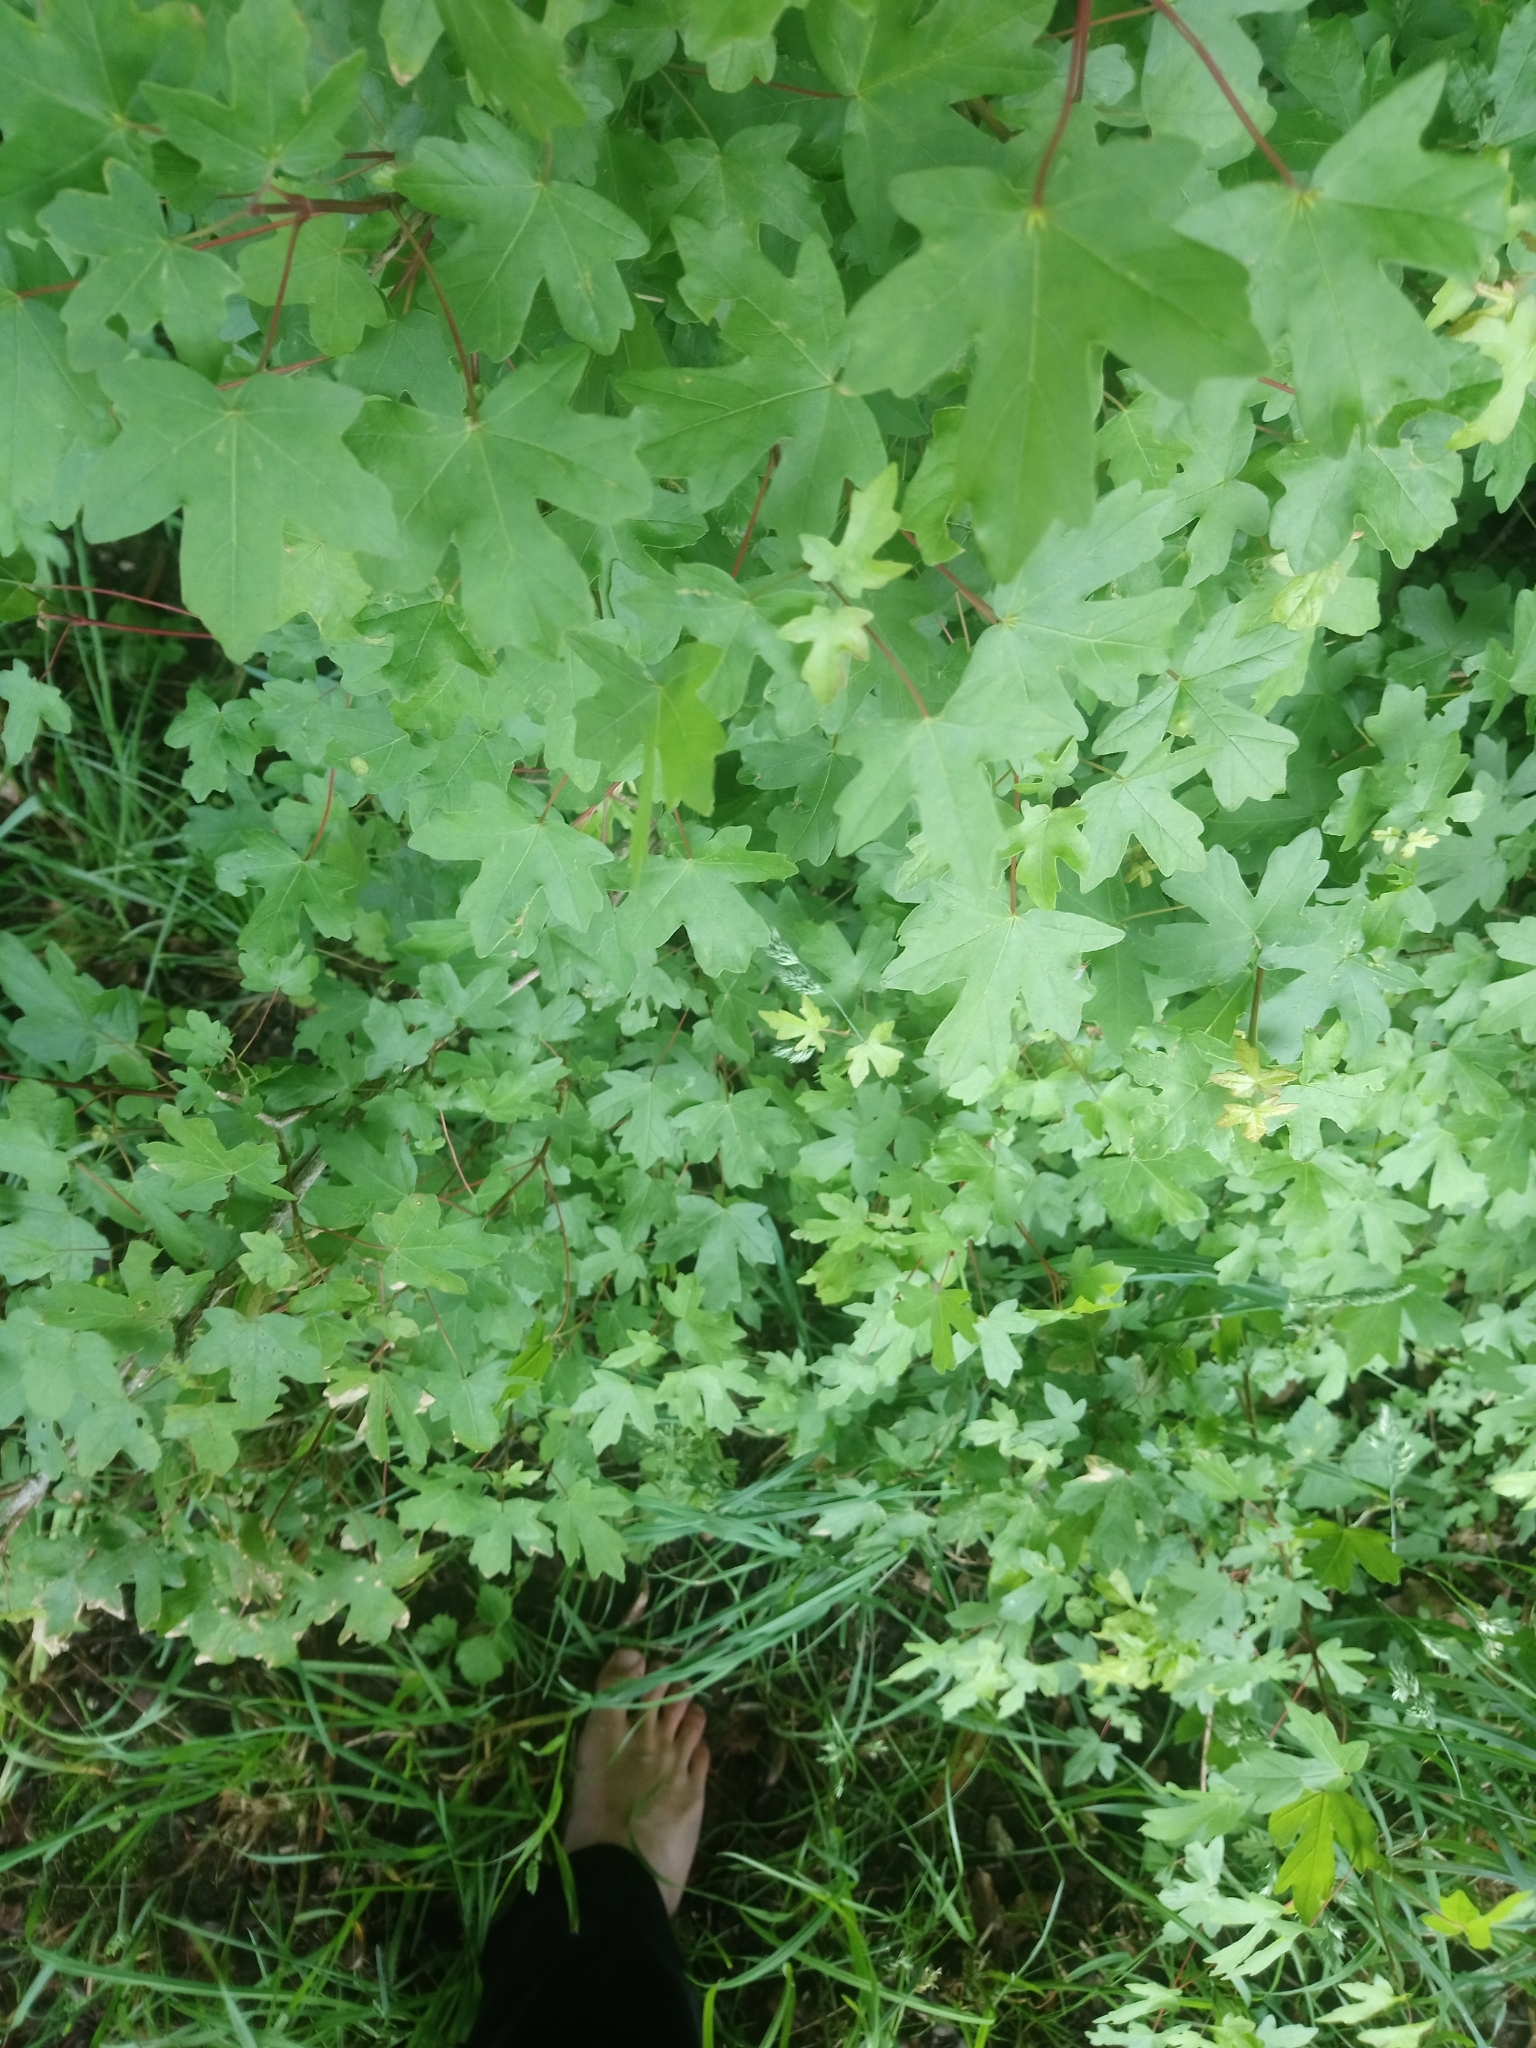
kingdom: Plantae
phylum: Tracheophyta
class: Magnoliopsida
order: Sapindales
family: Sapindaceae
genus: Acer
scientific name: Acer campestre
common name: Field maple
